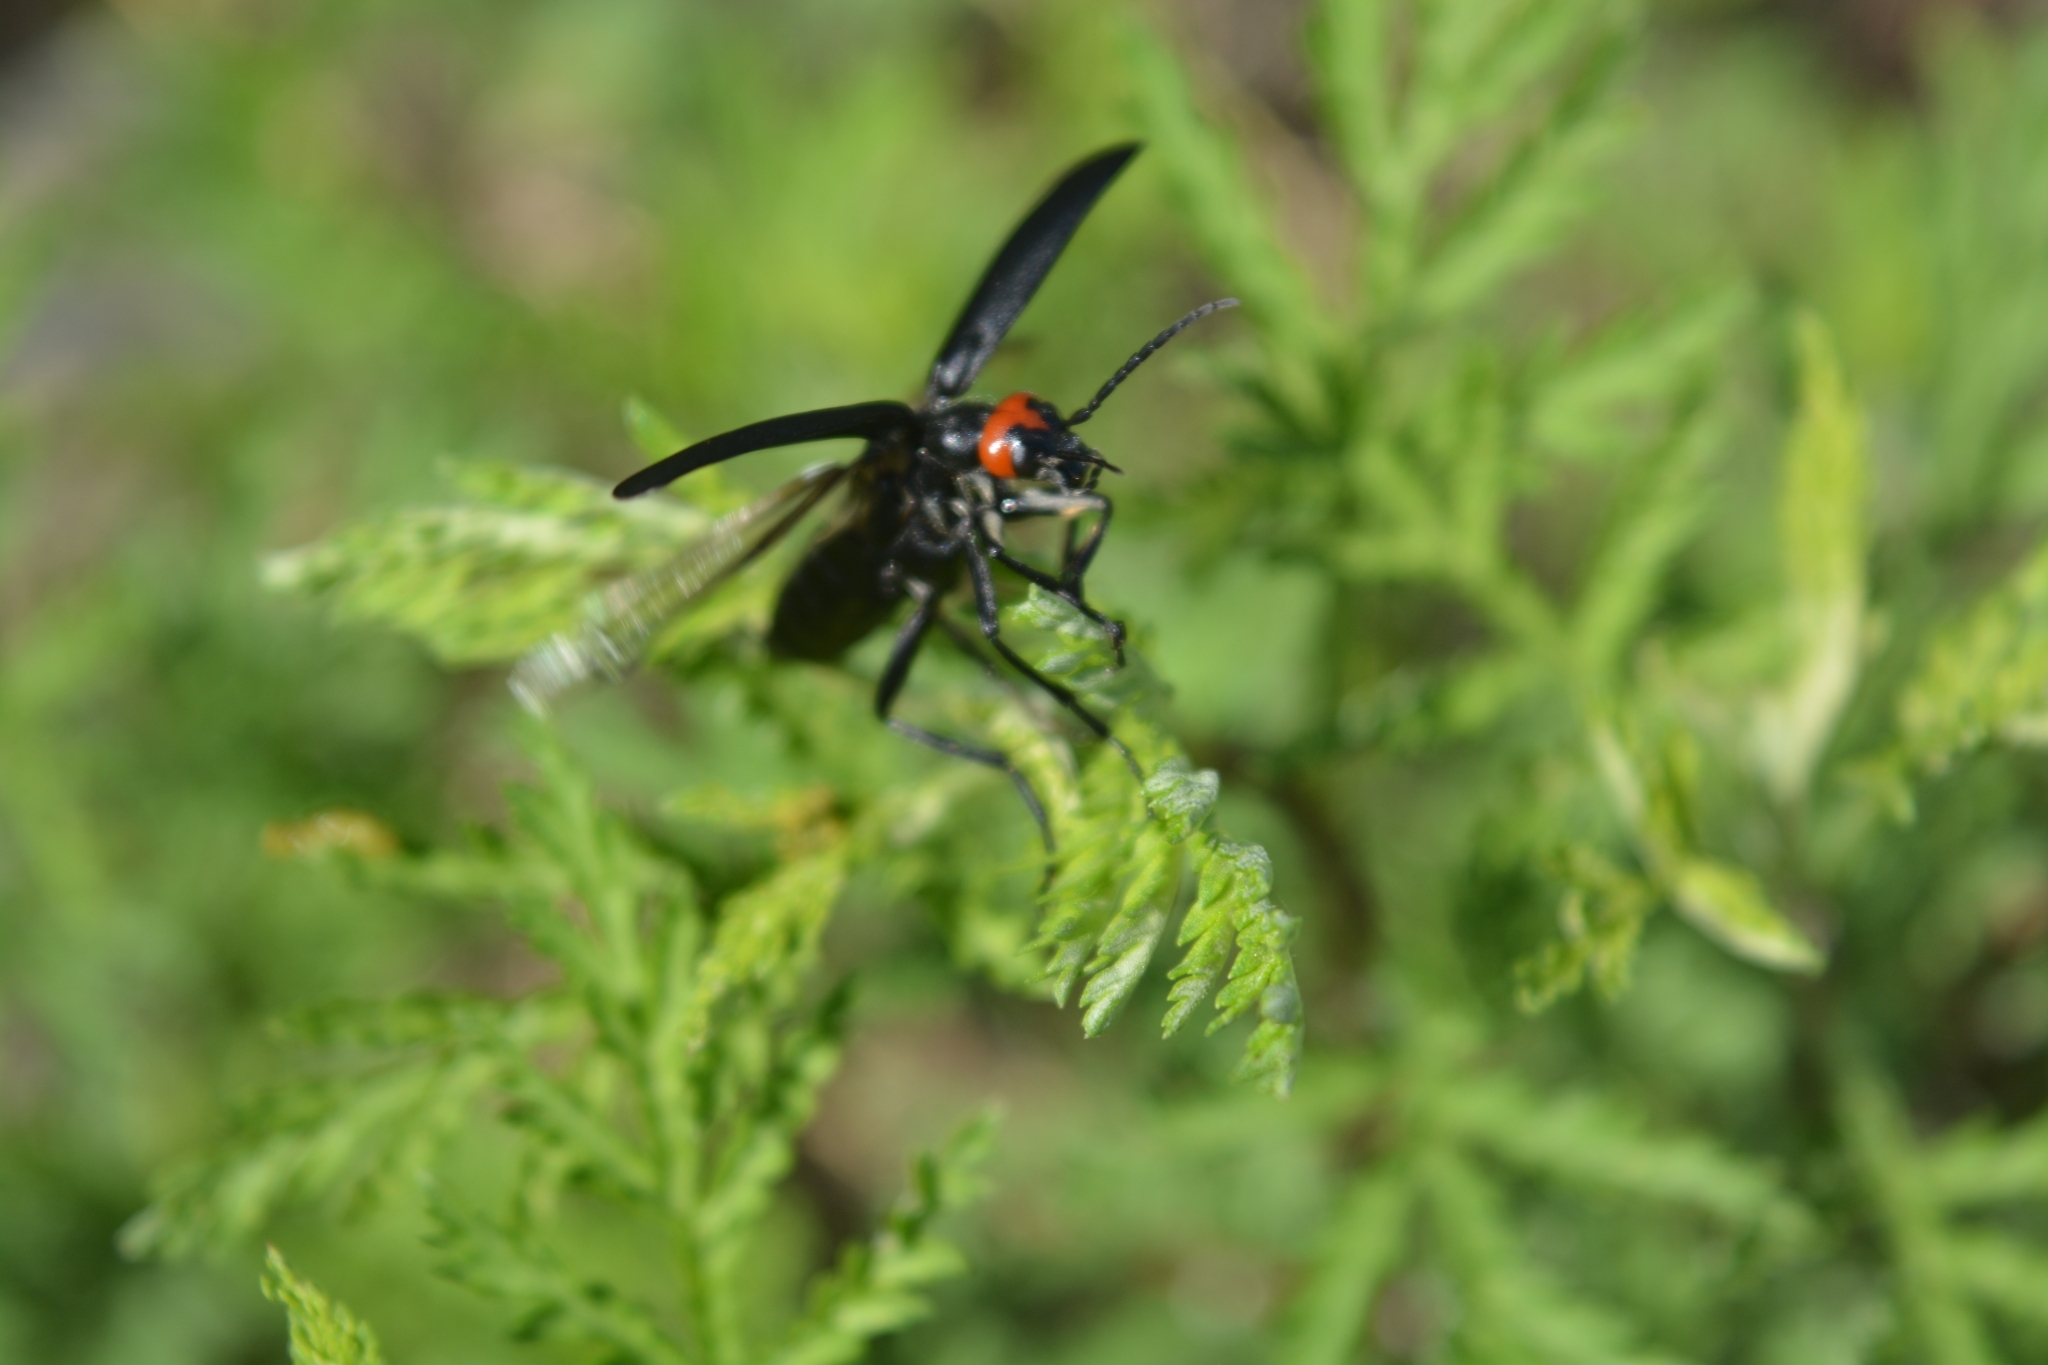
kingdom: Animalia
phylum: Arthropoda
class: Insecta
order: Coleoptera
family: Meloidae
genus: Epicauta
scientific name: Epicauta flabellicornis
